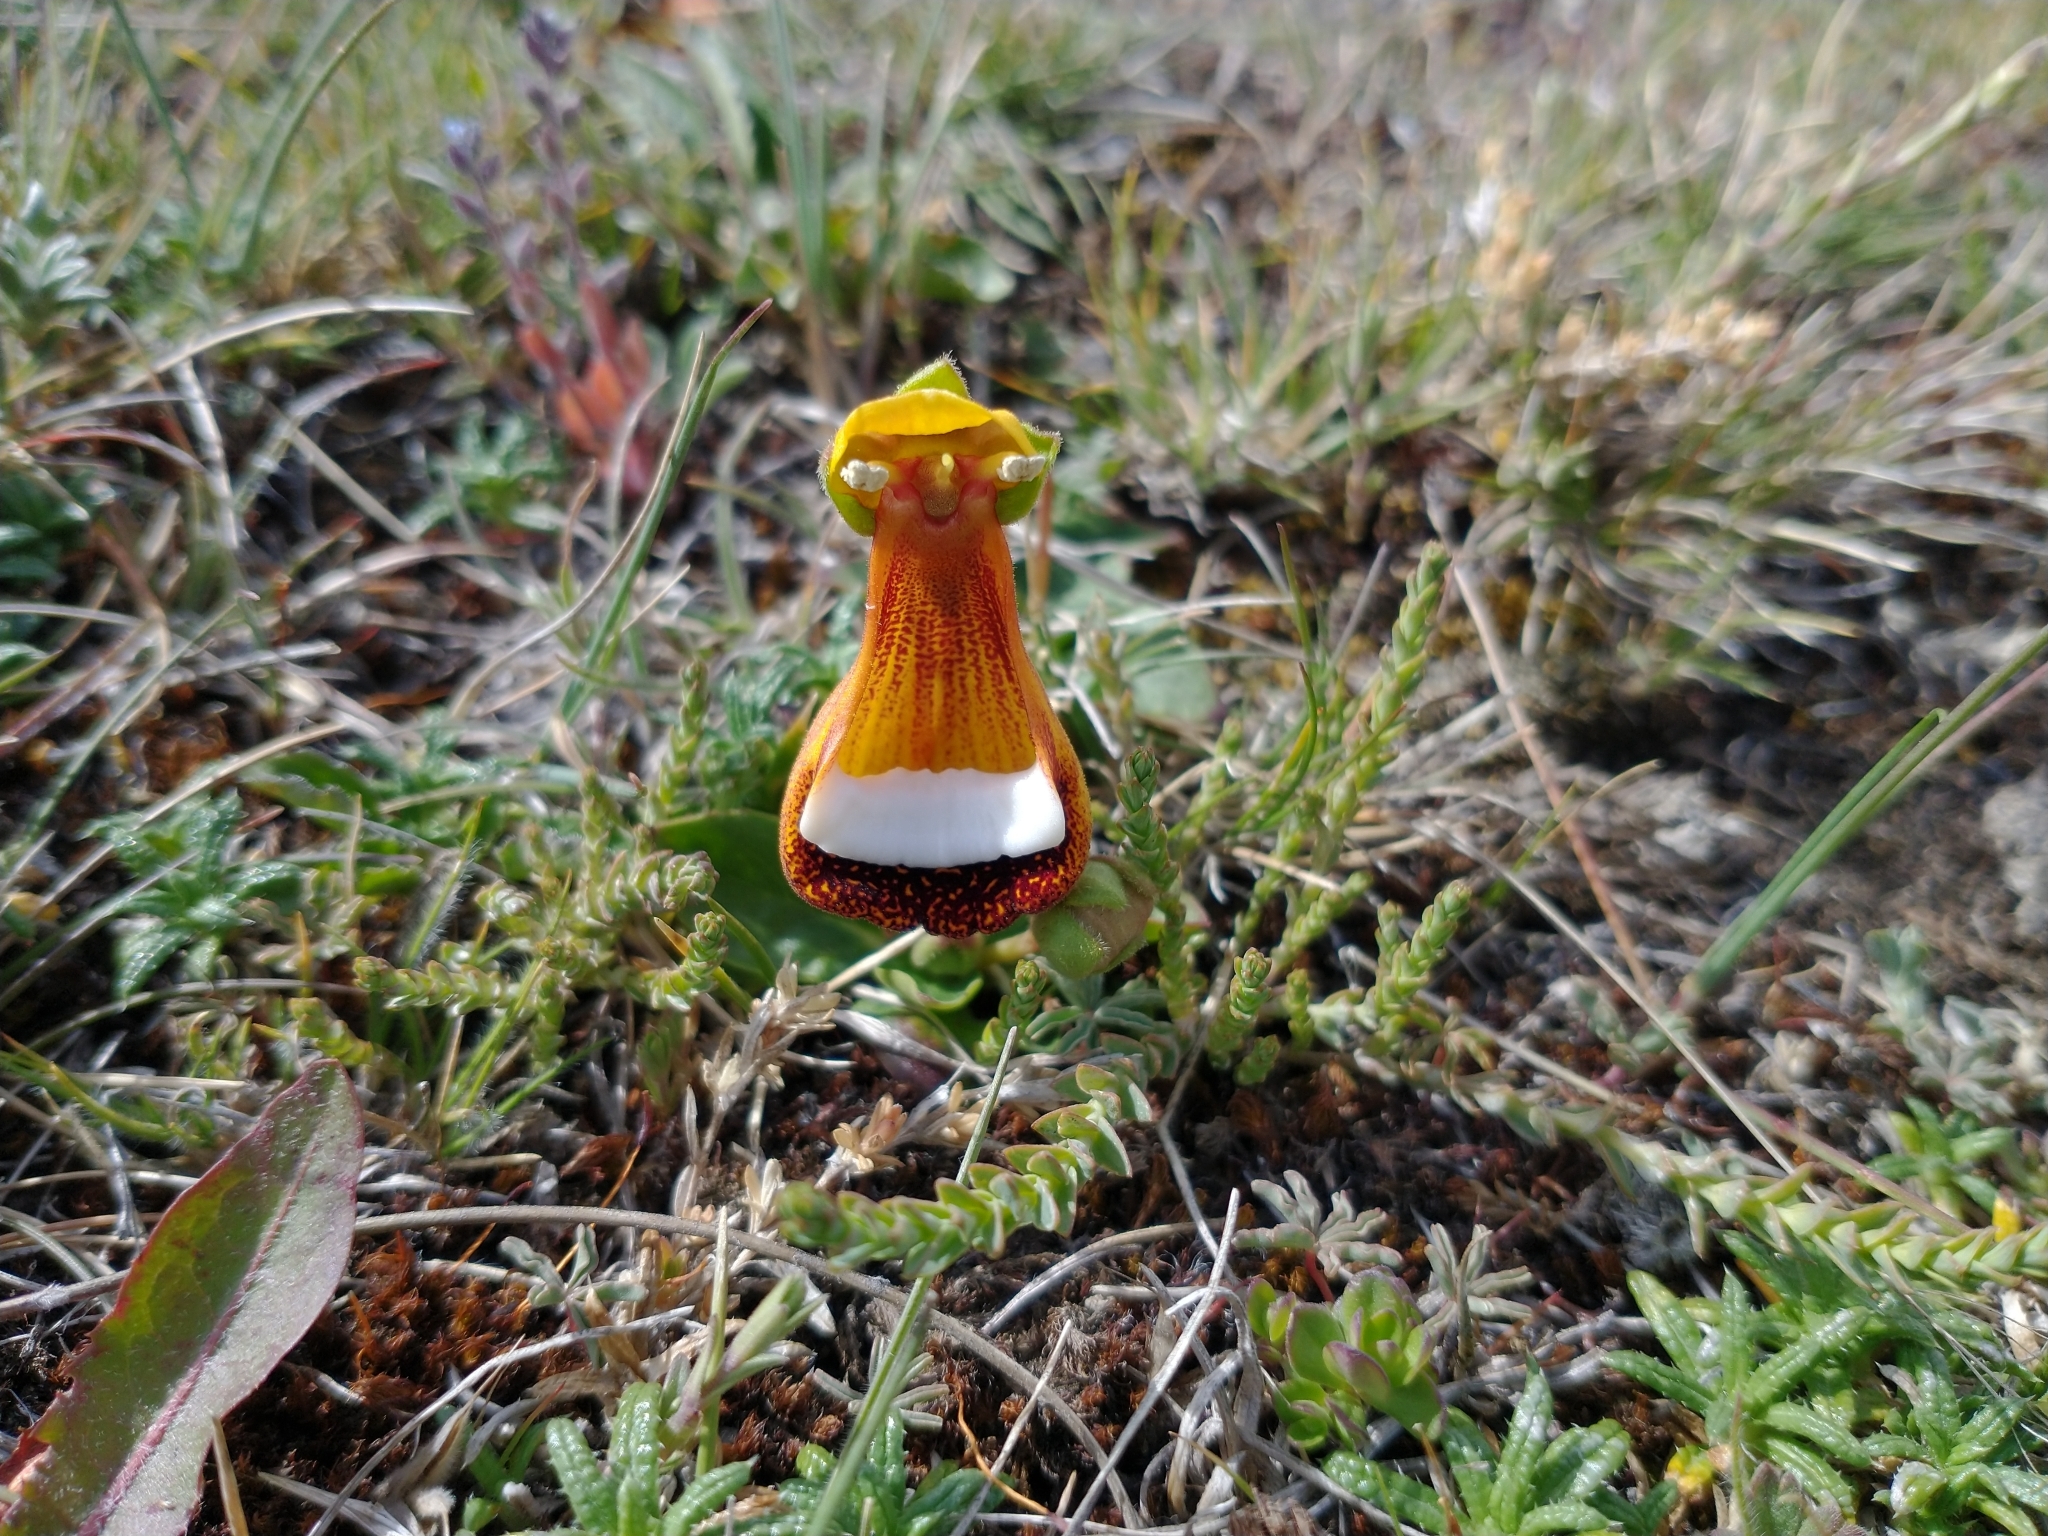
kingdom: Plantae
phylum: Tracheophyta
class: Magnoliopsida
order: Lamiales
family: Calceolariaceae
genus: Calceolaria
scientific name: Calceolaria uniflora
